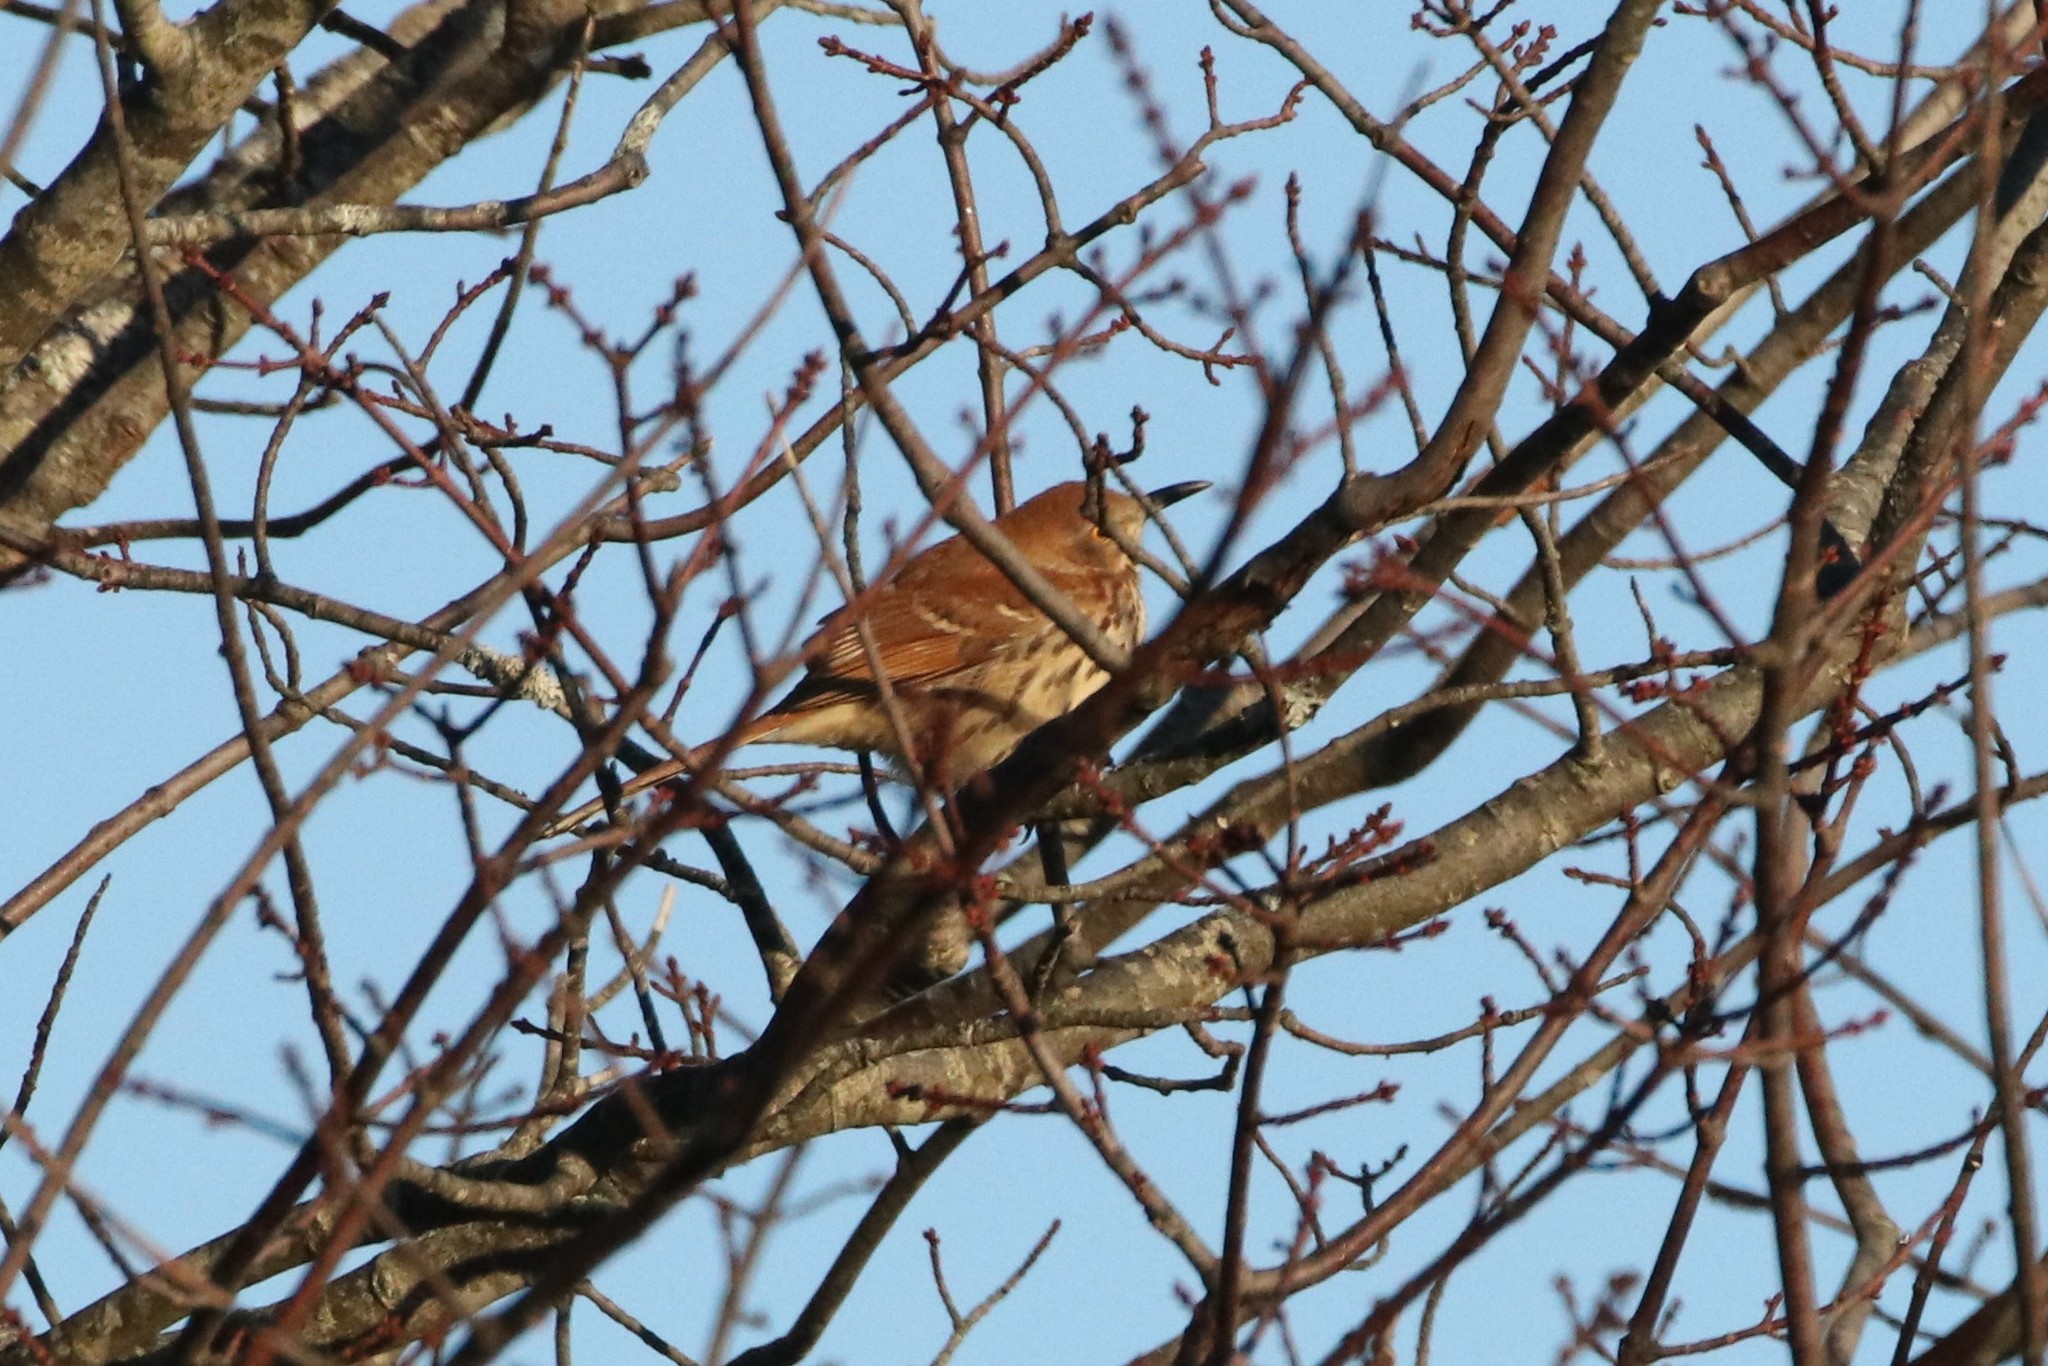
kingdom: Animalia
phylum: Chordata
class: Aves
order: Passeriformes
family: Mimidae
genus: Toxostoma
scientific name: Toxostoma rufum
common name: Brown thrasher
